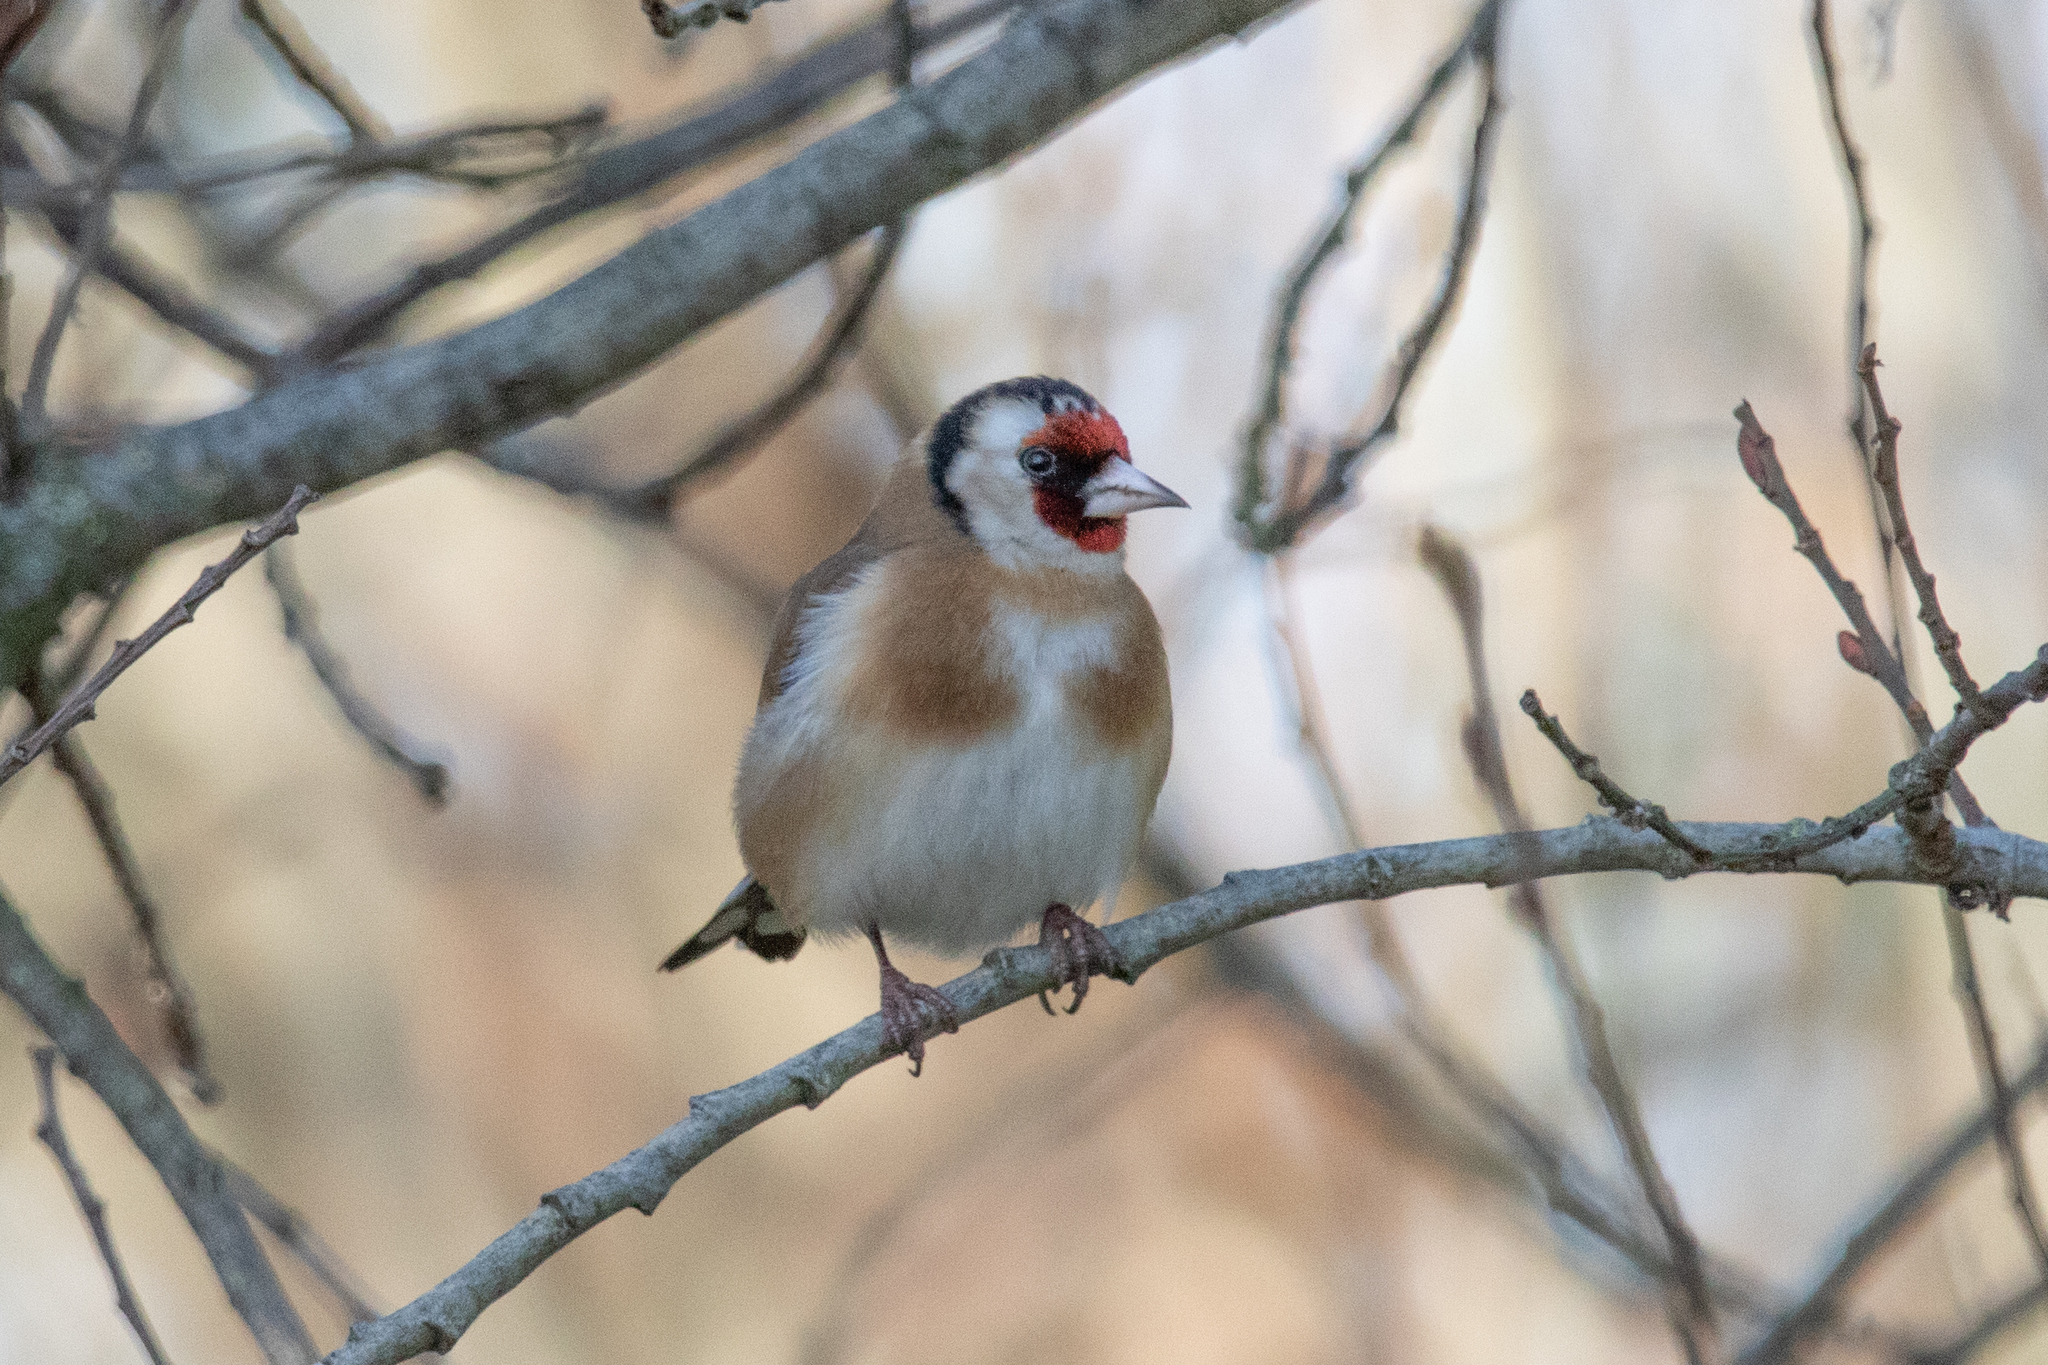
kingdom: Animalia
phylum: Chordata
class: Aves
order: Passeriformes
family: Fringillidae
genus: Carduelis
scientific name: Carduelis carduelis
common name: European goldfinch
